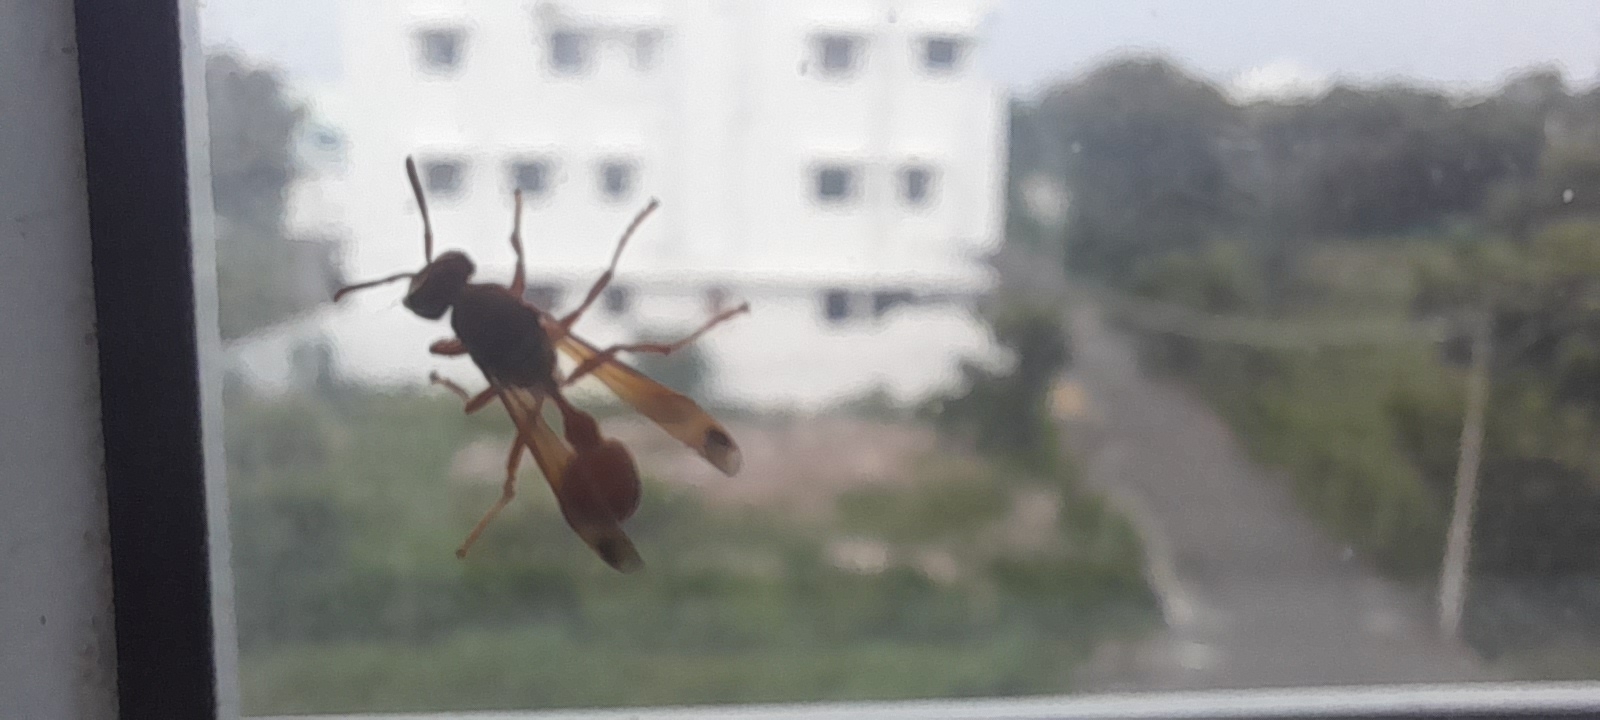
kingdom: Animalia
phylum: Arthropoda
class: Insecta
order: Hymenoptera
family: Vespidae
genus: Ropalidia
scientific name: Ropalidia marginata
